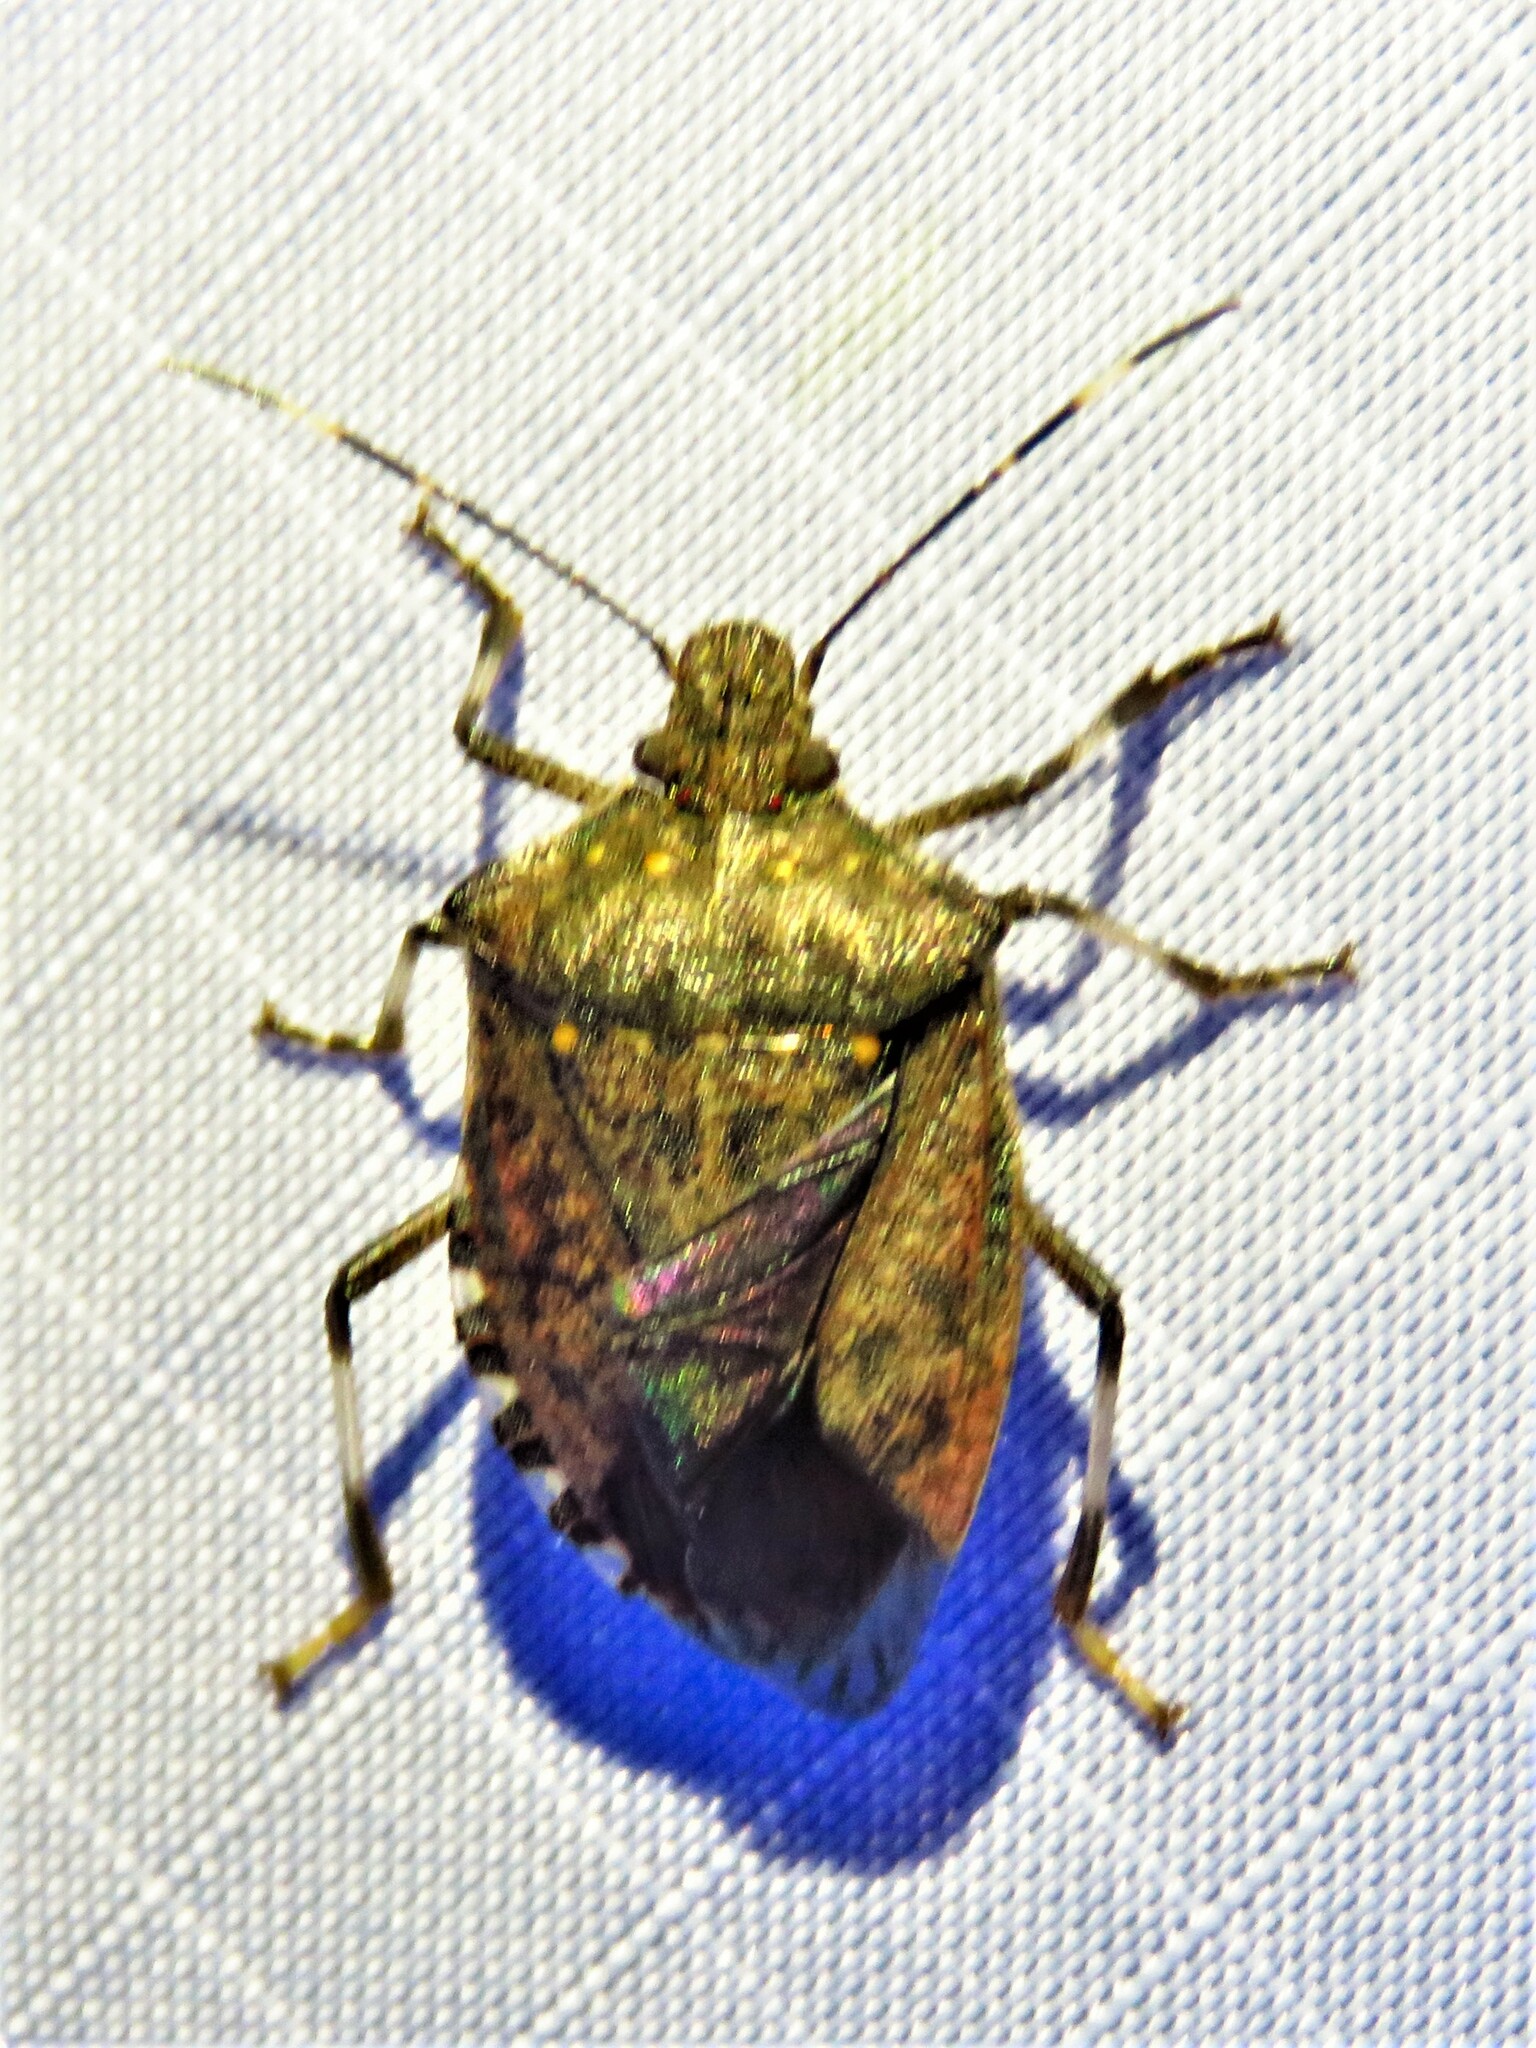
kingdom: Animalia
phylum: Arthropoda
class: Insecta
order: Hemiptera
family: Pentatomidae
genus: Halyomorpha
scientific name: Halyomorpha halys
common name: Brown marmorated stink bug
